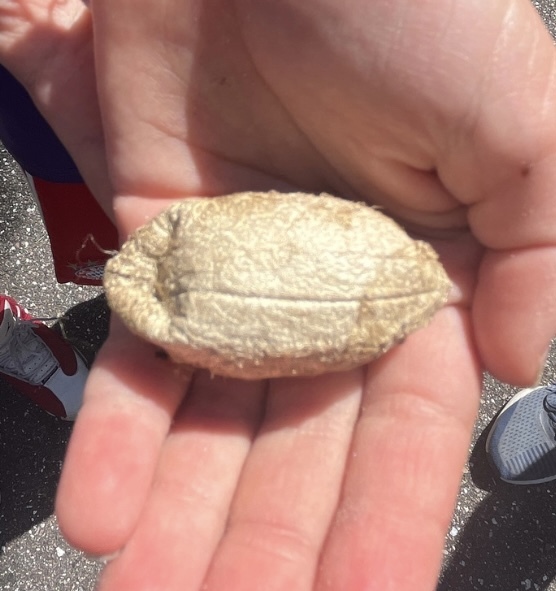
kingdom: Animalia
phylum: Arthropoda
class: Insecta
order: Lepidoptera
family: Saturniidae
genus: Antheraea
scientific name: Antheraea polyphemus
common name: Polyphemus moth
